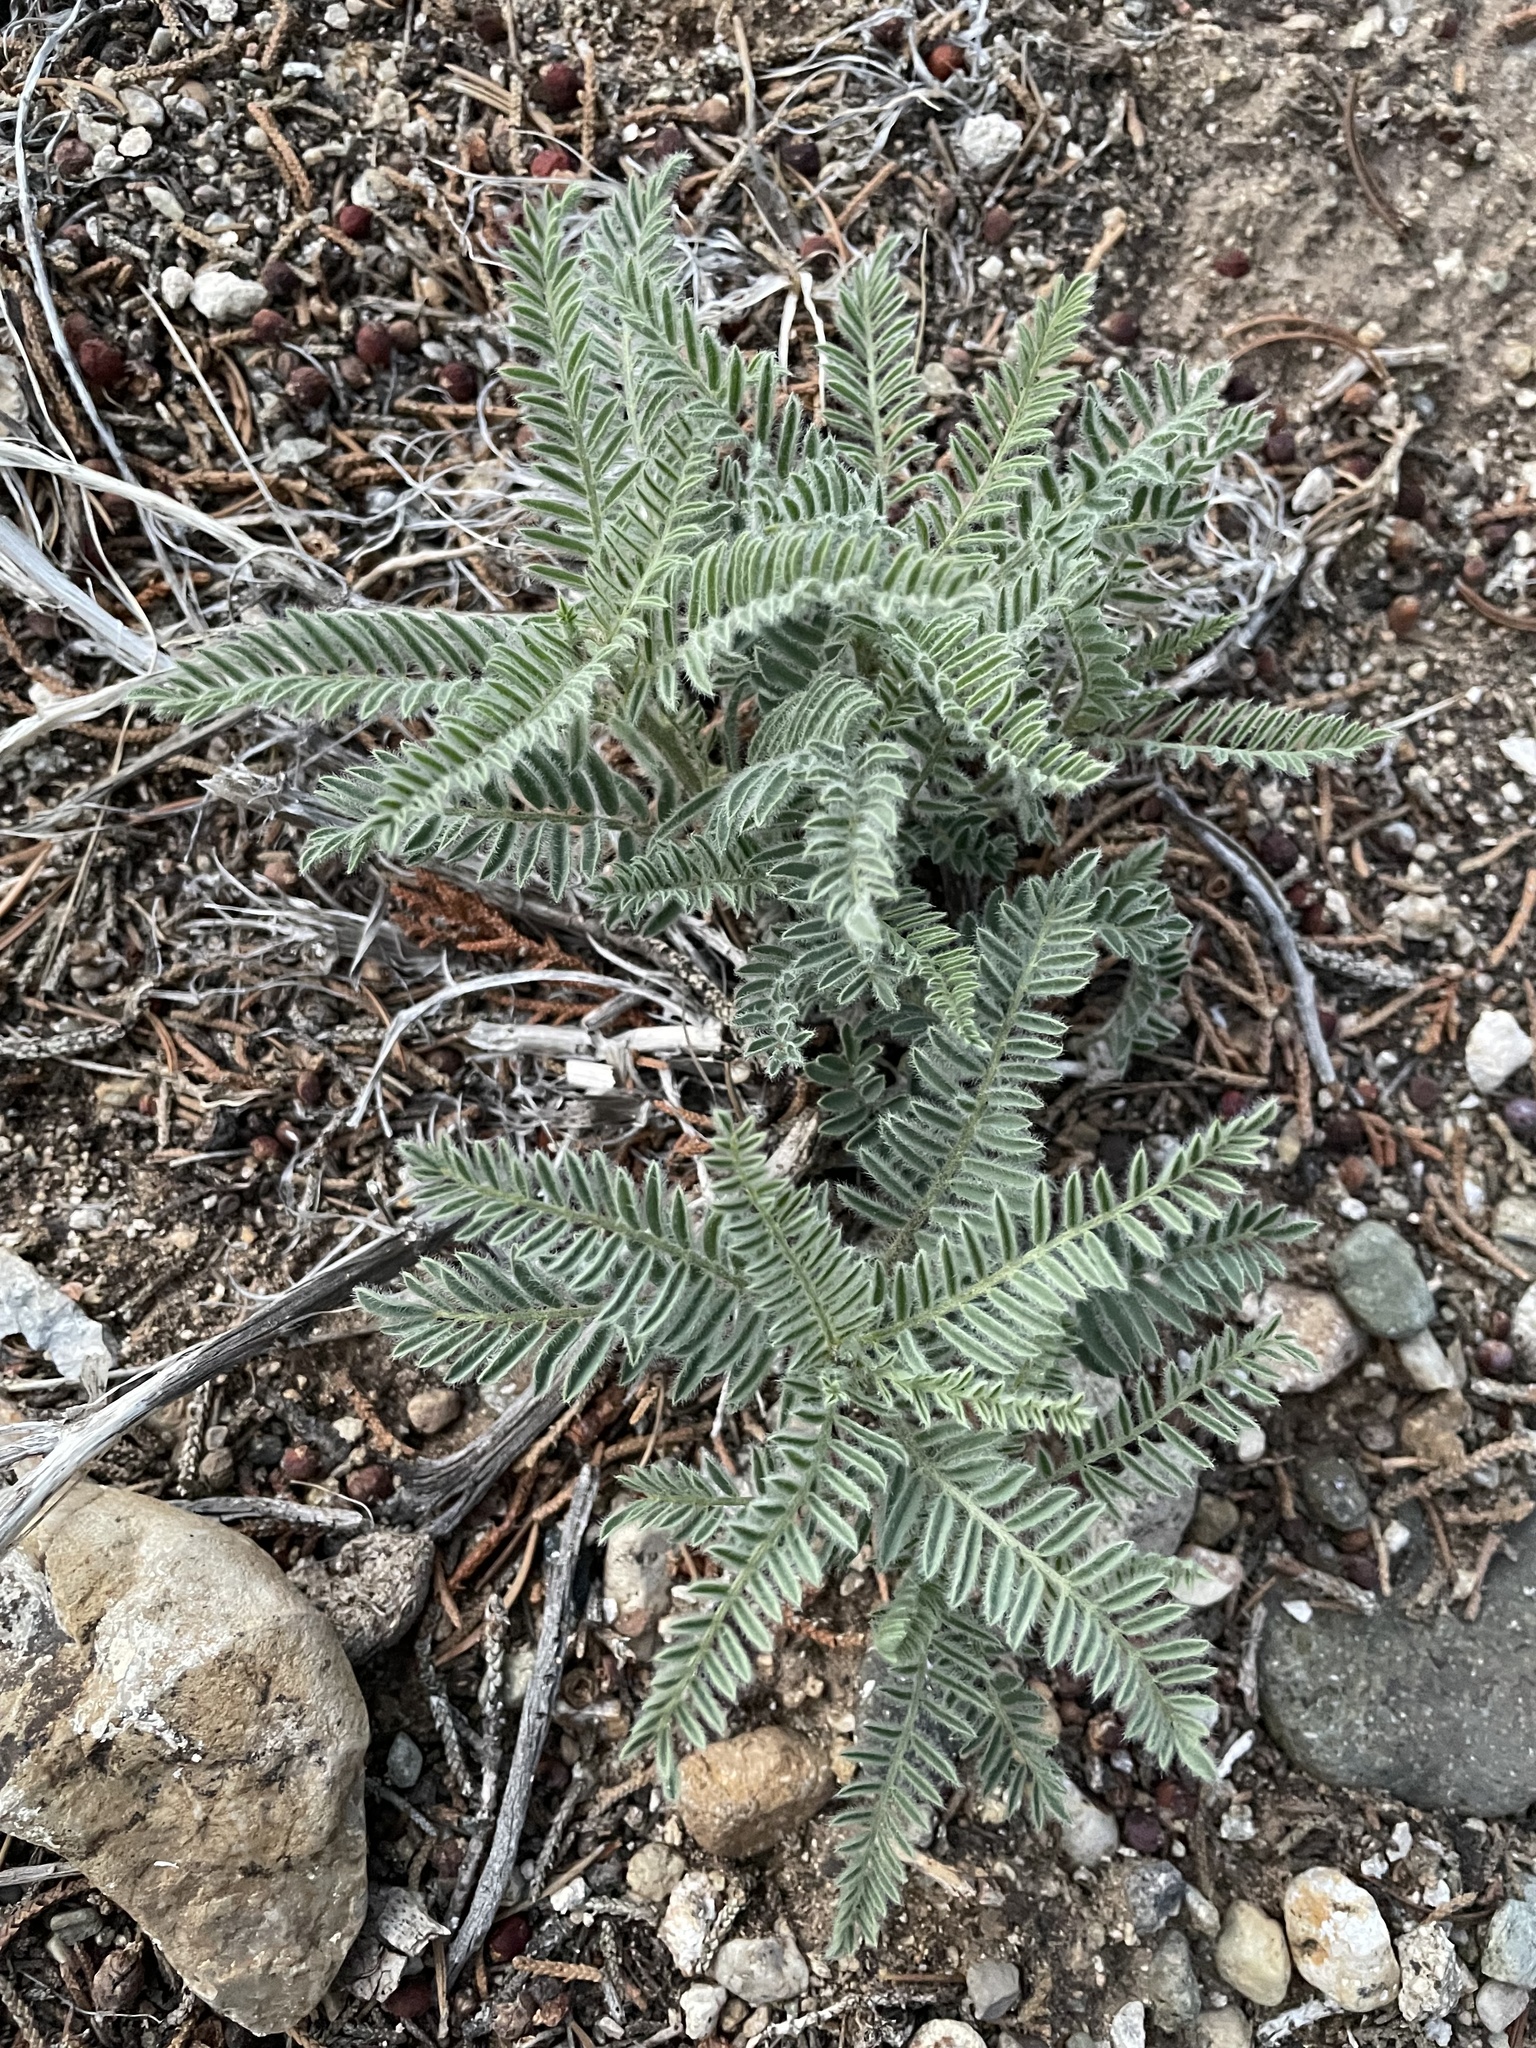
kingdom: Plantae
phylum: Tracheophyta
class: Magnoliopsida
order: Fabales
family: Fabaceae
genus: Astragalus
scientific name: Astragalus drummondii
